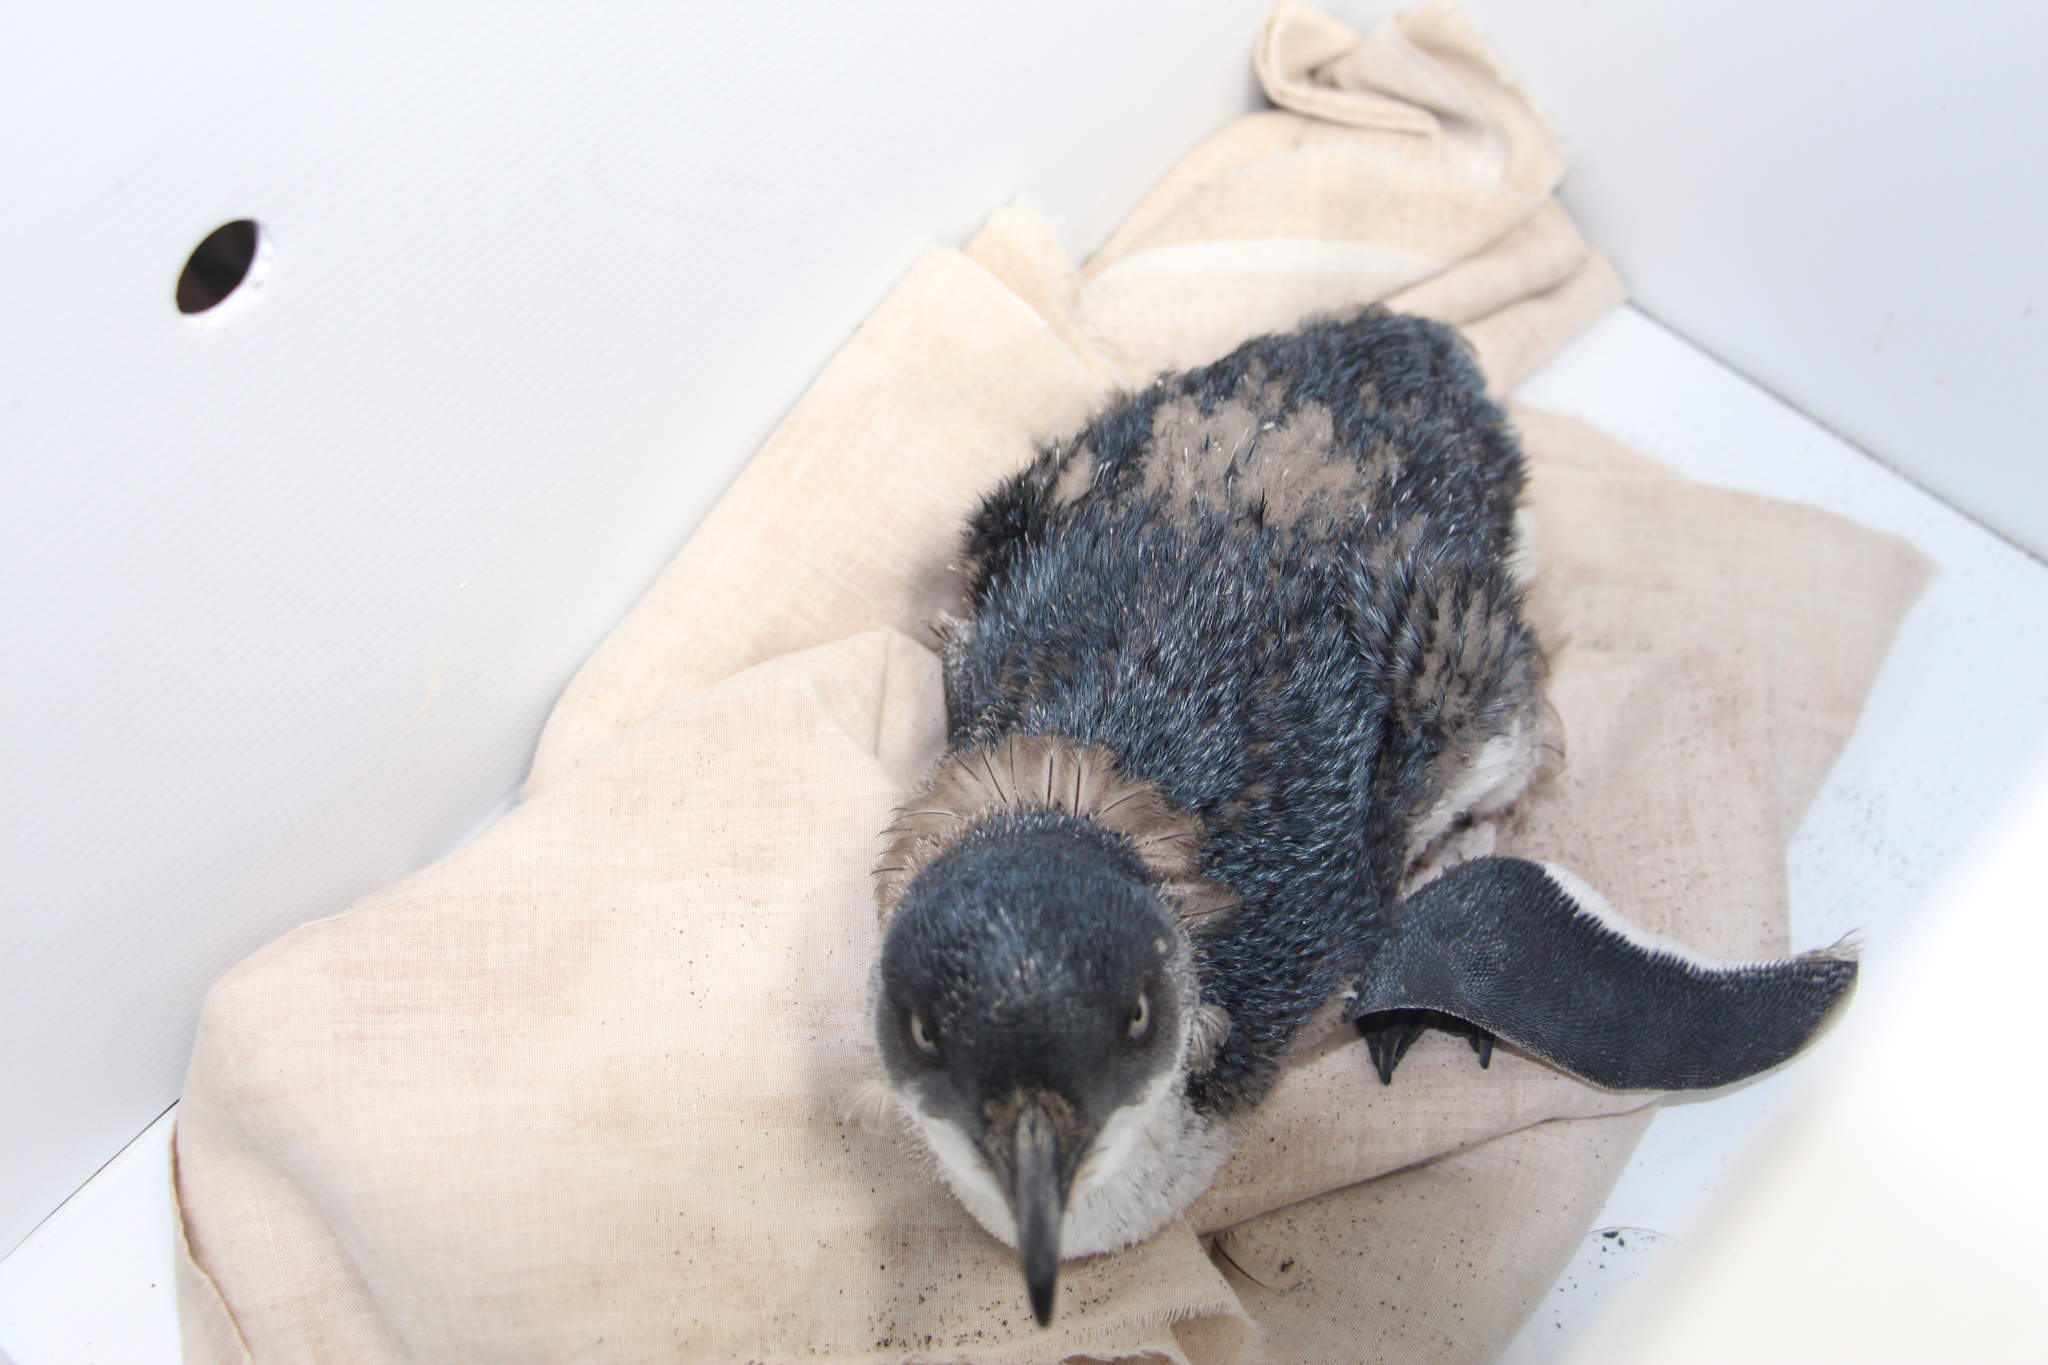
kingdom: Animalia
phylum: Chordata
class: Aves
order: Sphenisciformes
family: Spheniscidae
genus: Eudyptula
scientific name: Eudyptula minor
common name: Little penguin
